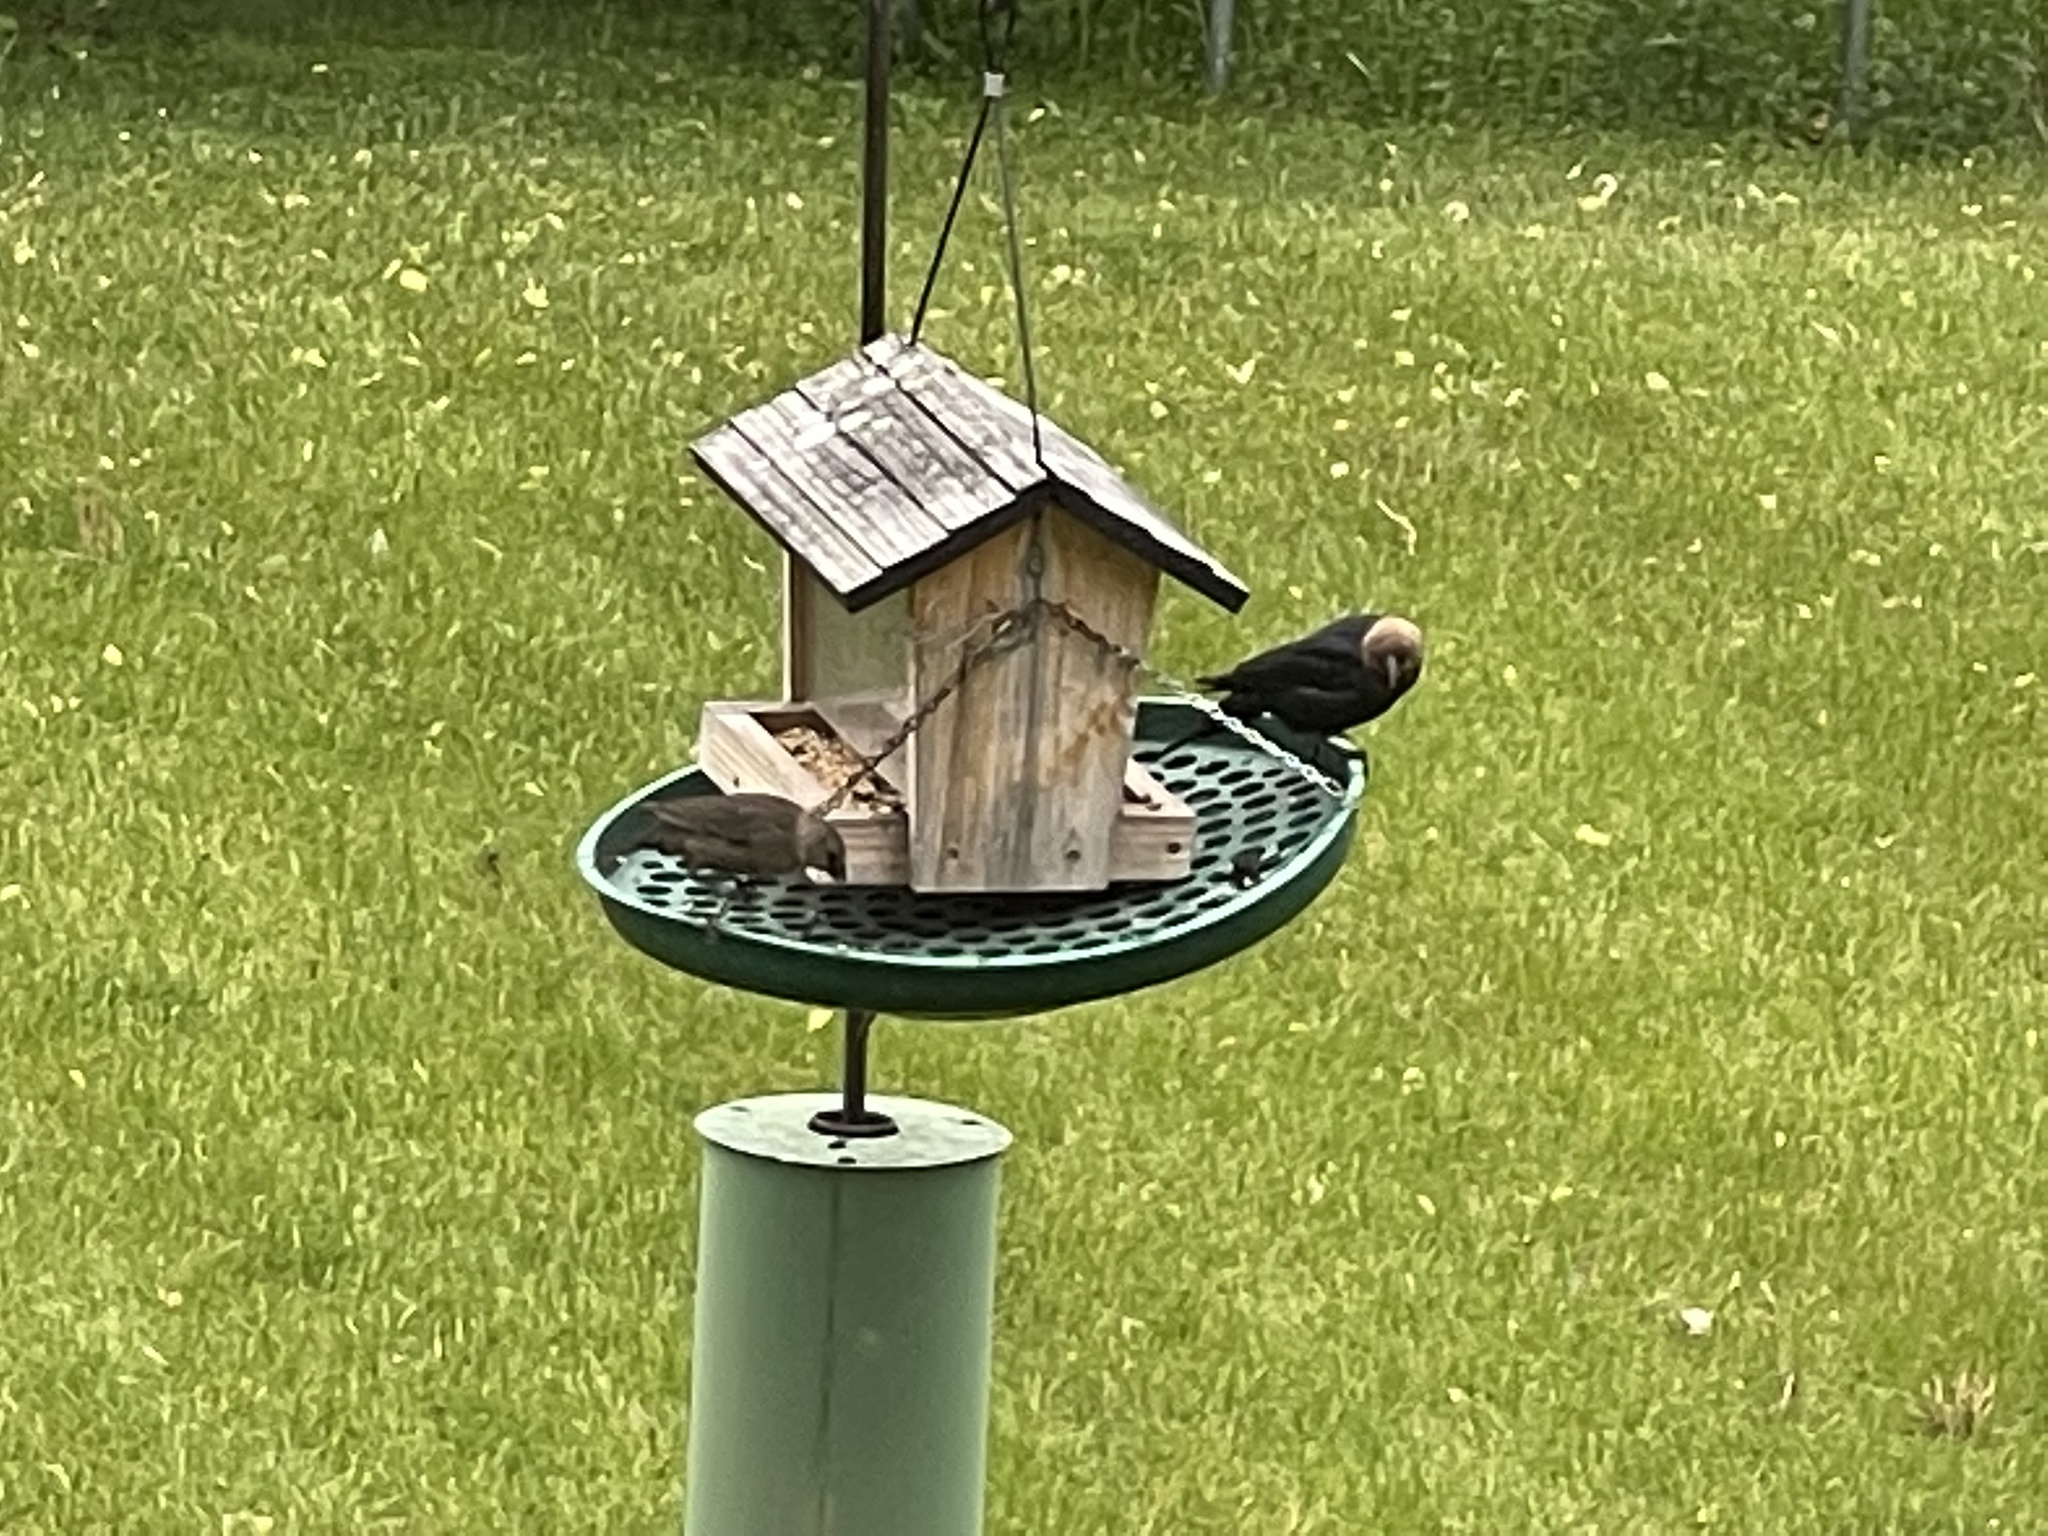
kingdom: Animalia
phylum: Chordata
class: Aves
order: Passeriformes
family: Icteridae
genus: Molothrus
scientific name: Molothrus ater
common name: Brown-headed cowbird
